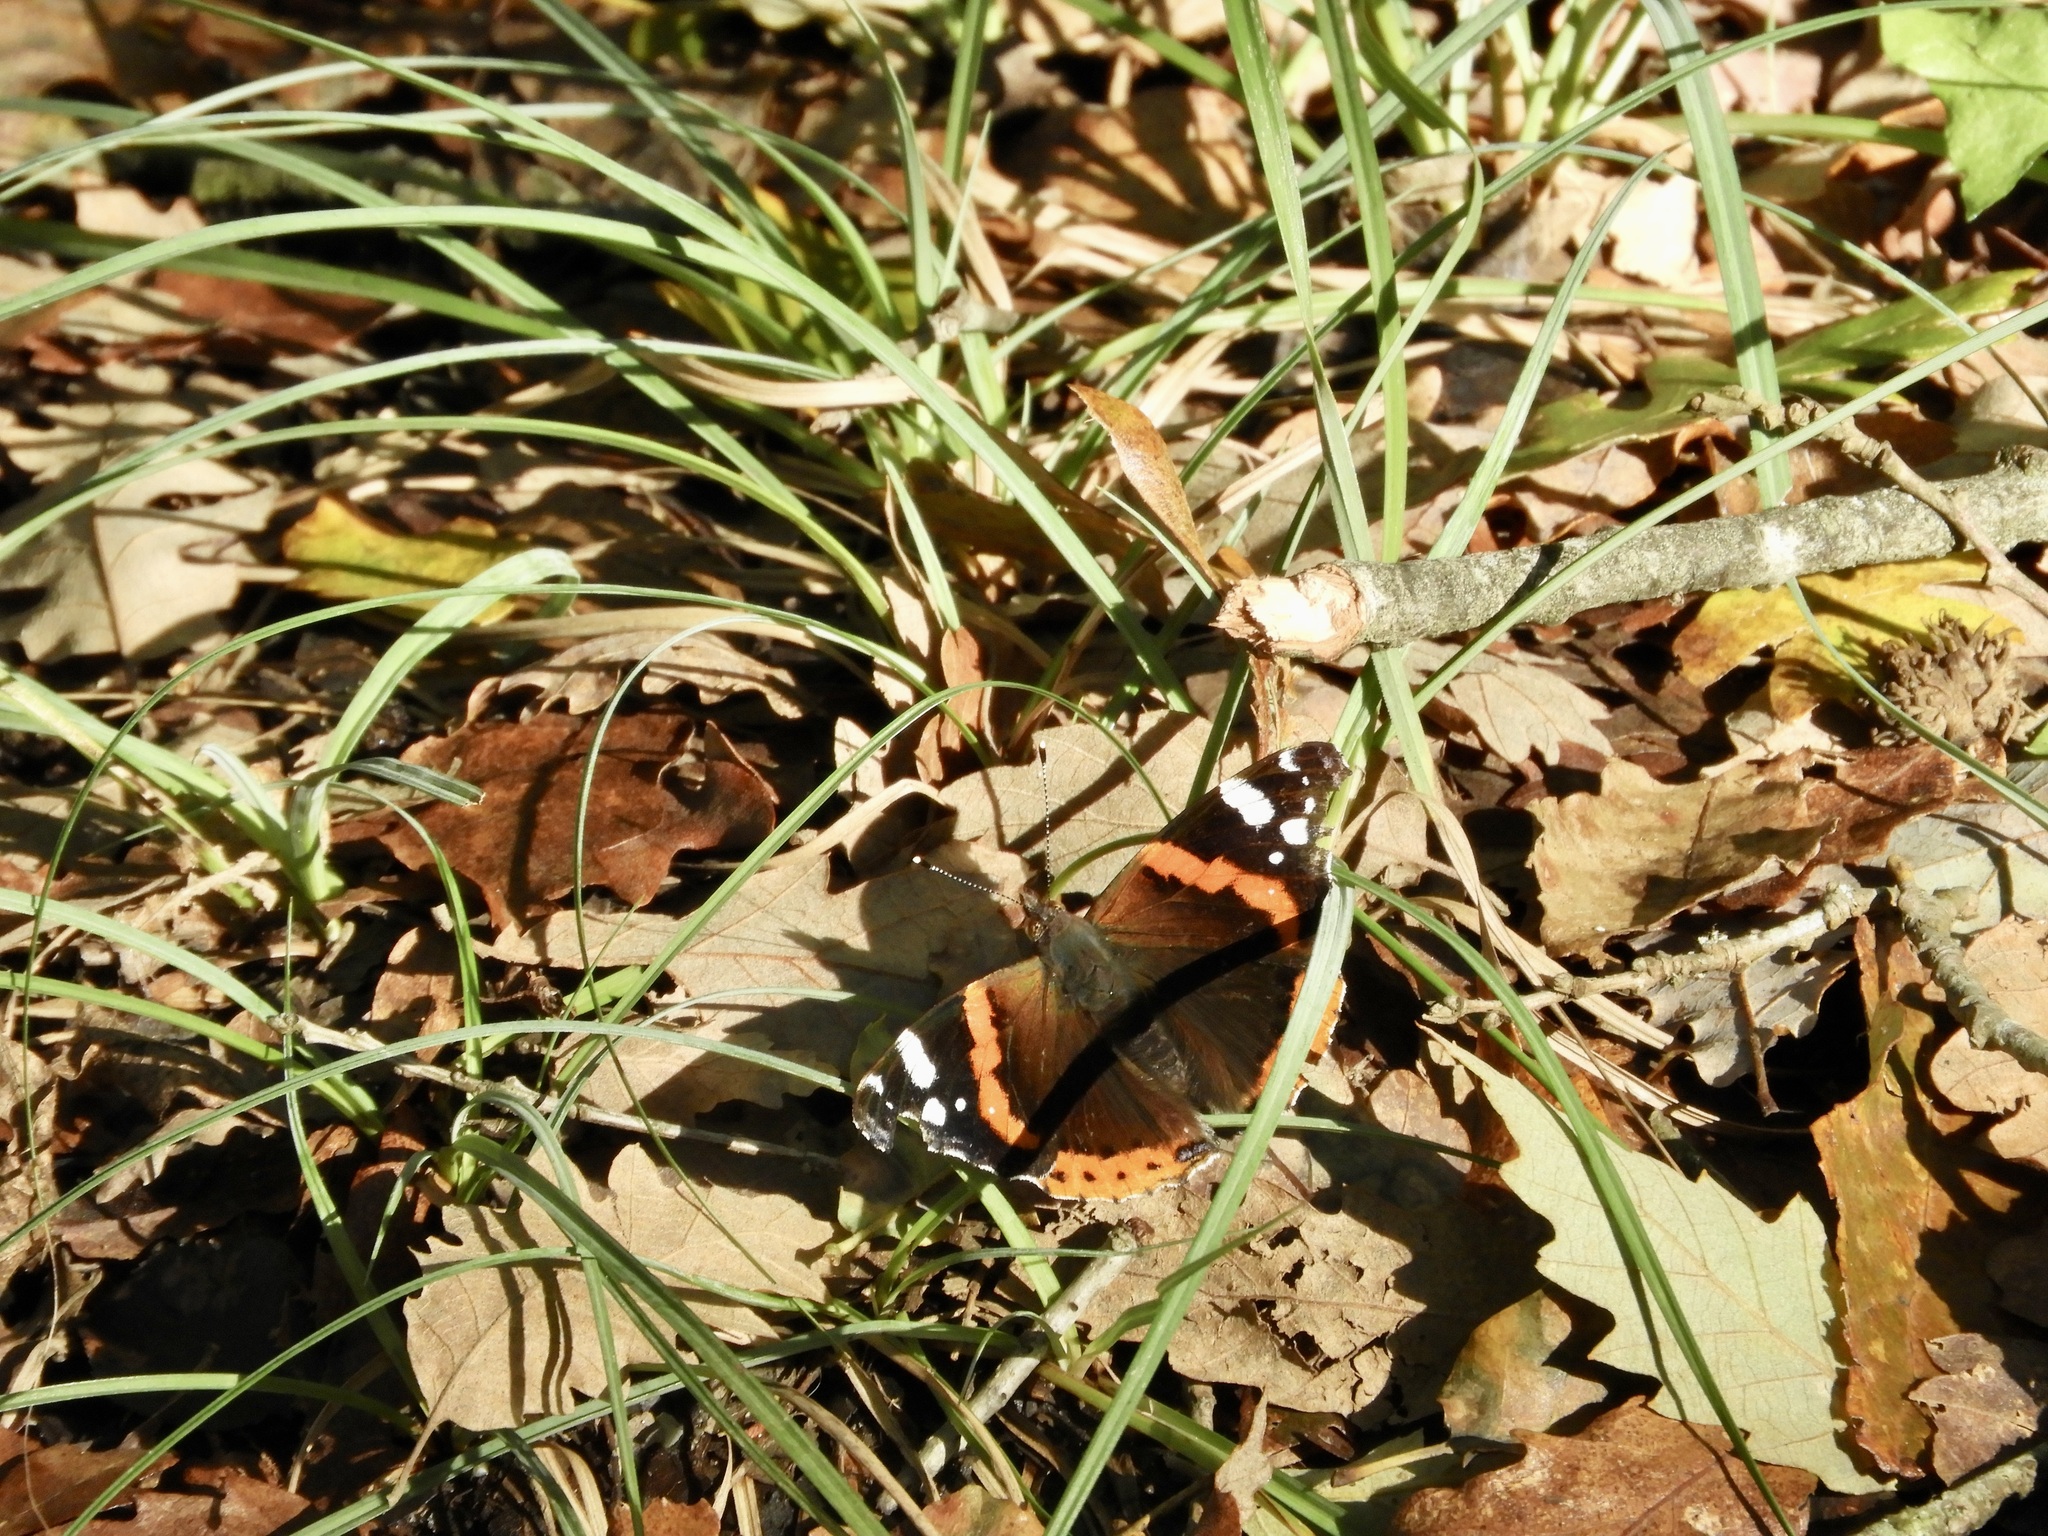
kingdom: Animalia
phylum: Arthropoda
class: Insecta
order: Lepidoptera
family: Nymphalidae
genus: Vanessa
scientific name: Vanessa atalanta
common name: Red admiral
